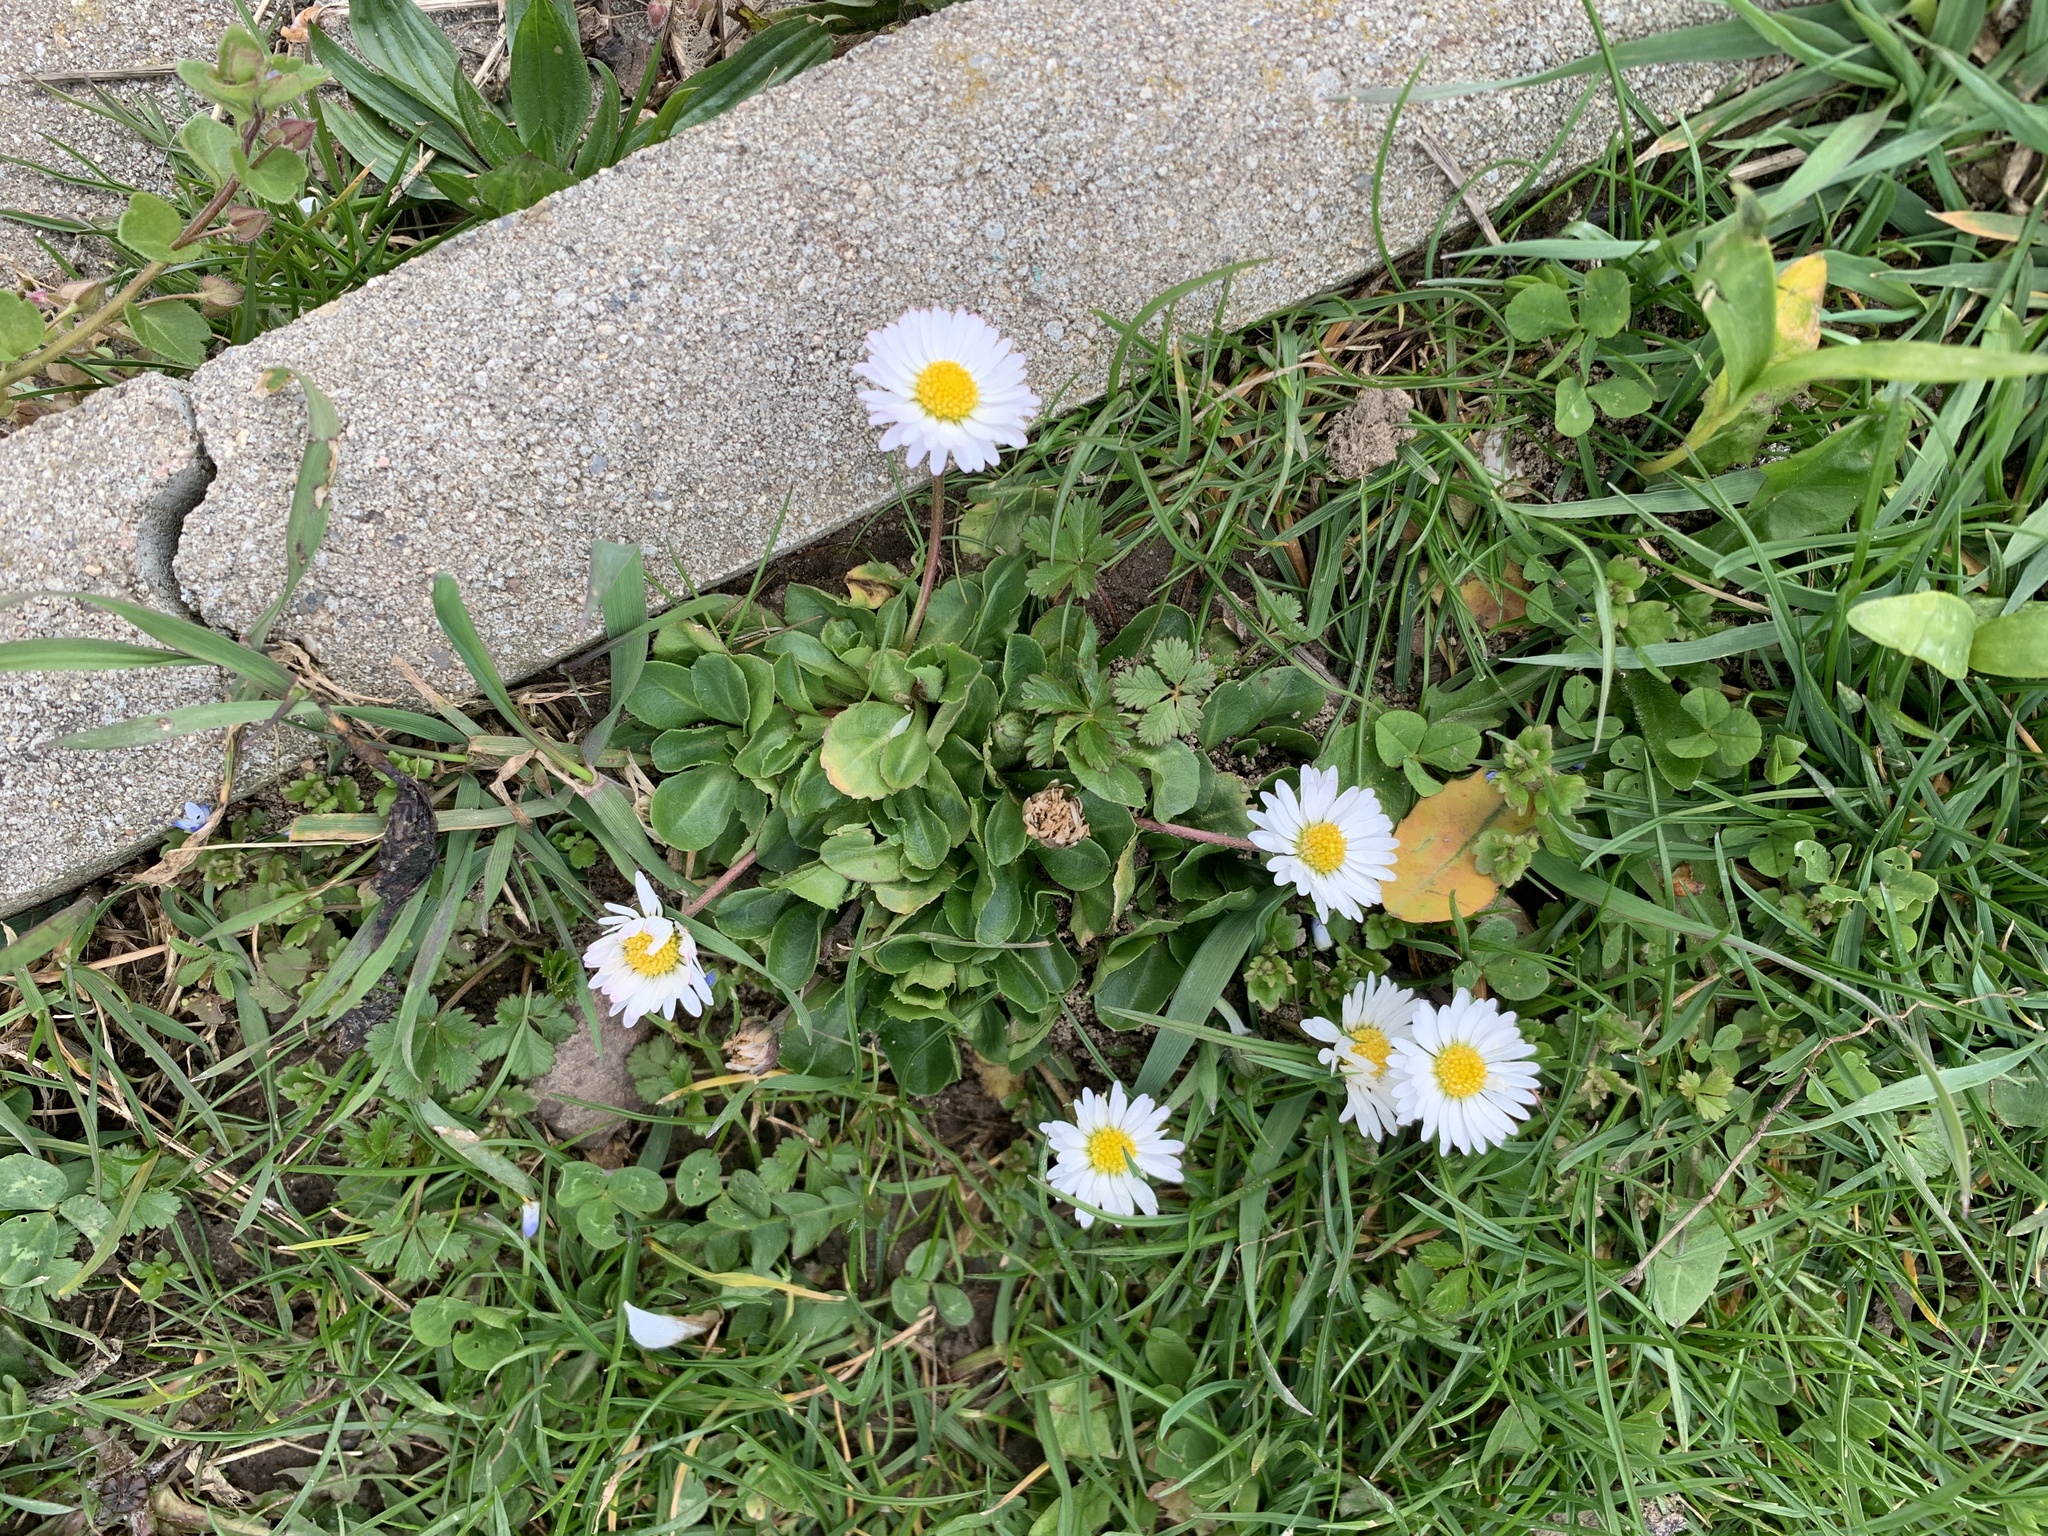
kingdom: Plantae
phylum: Tracheophyta
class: Magnoliopsida
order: Asterales
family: Asteraceae
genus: Bellis
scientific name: Bellis perennis
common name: Lawndaisy
